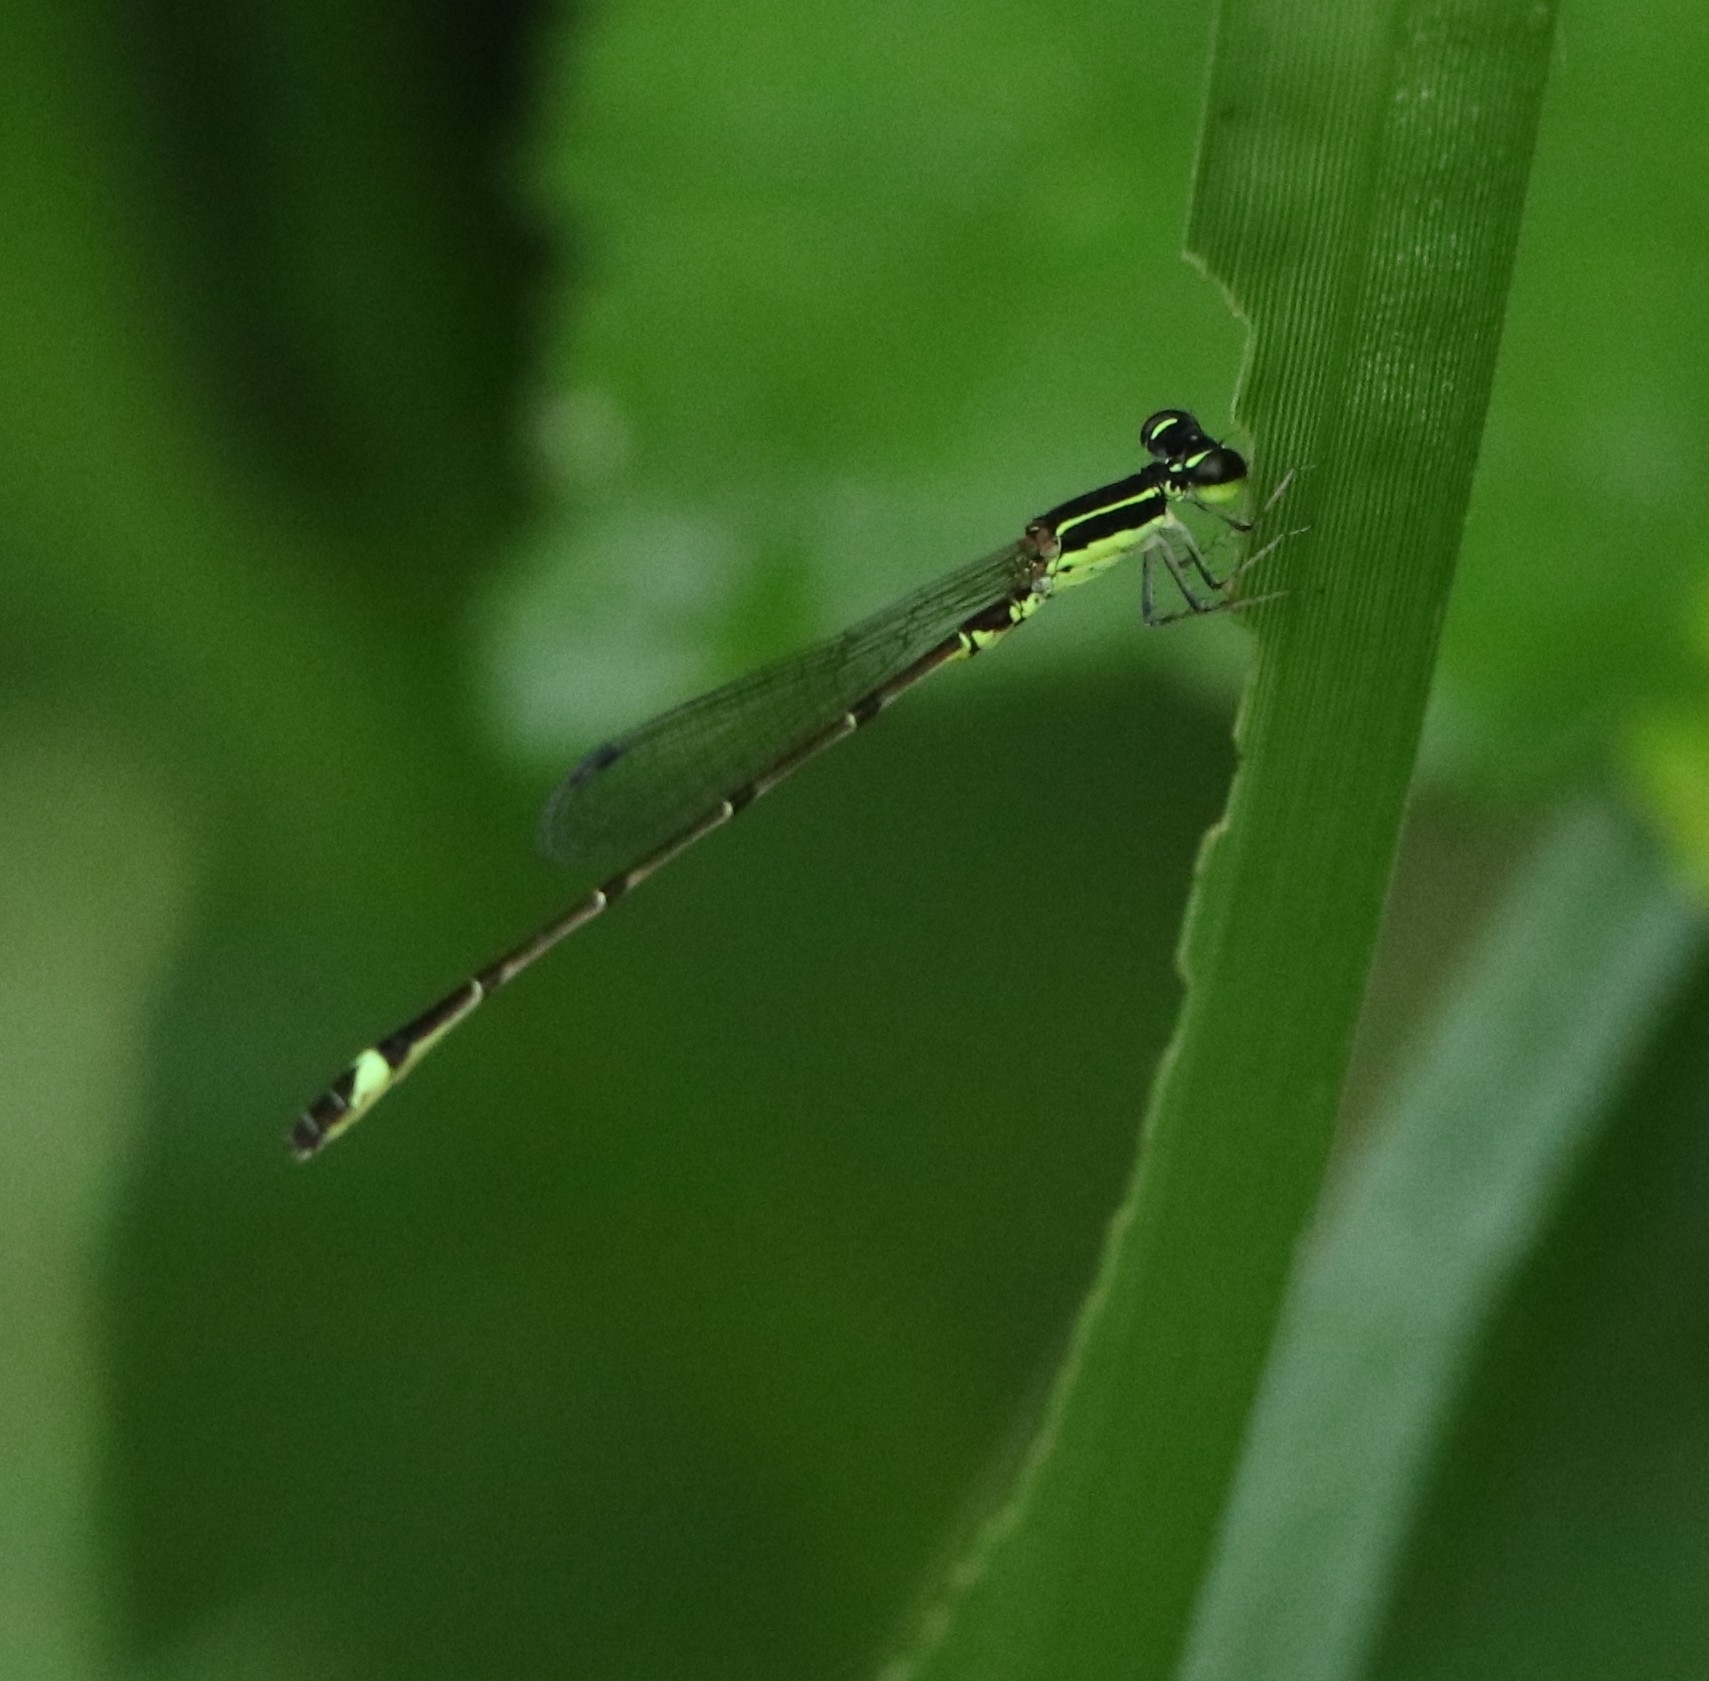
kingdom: Animalia
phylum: Arthropoda
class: Insecta
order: Odonata
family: Coenagrionidae
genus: Mortonagrion
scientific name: Mortonagrion varralli
